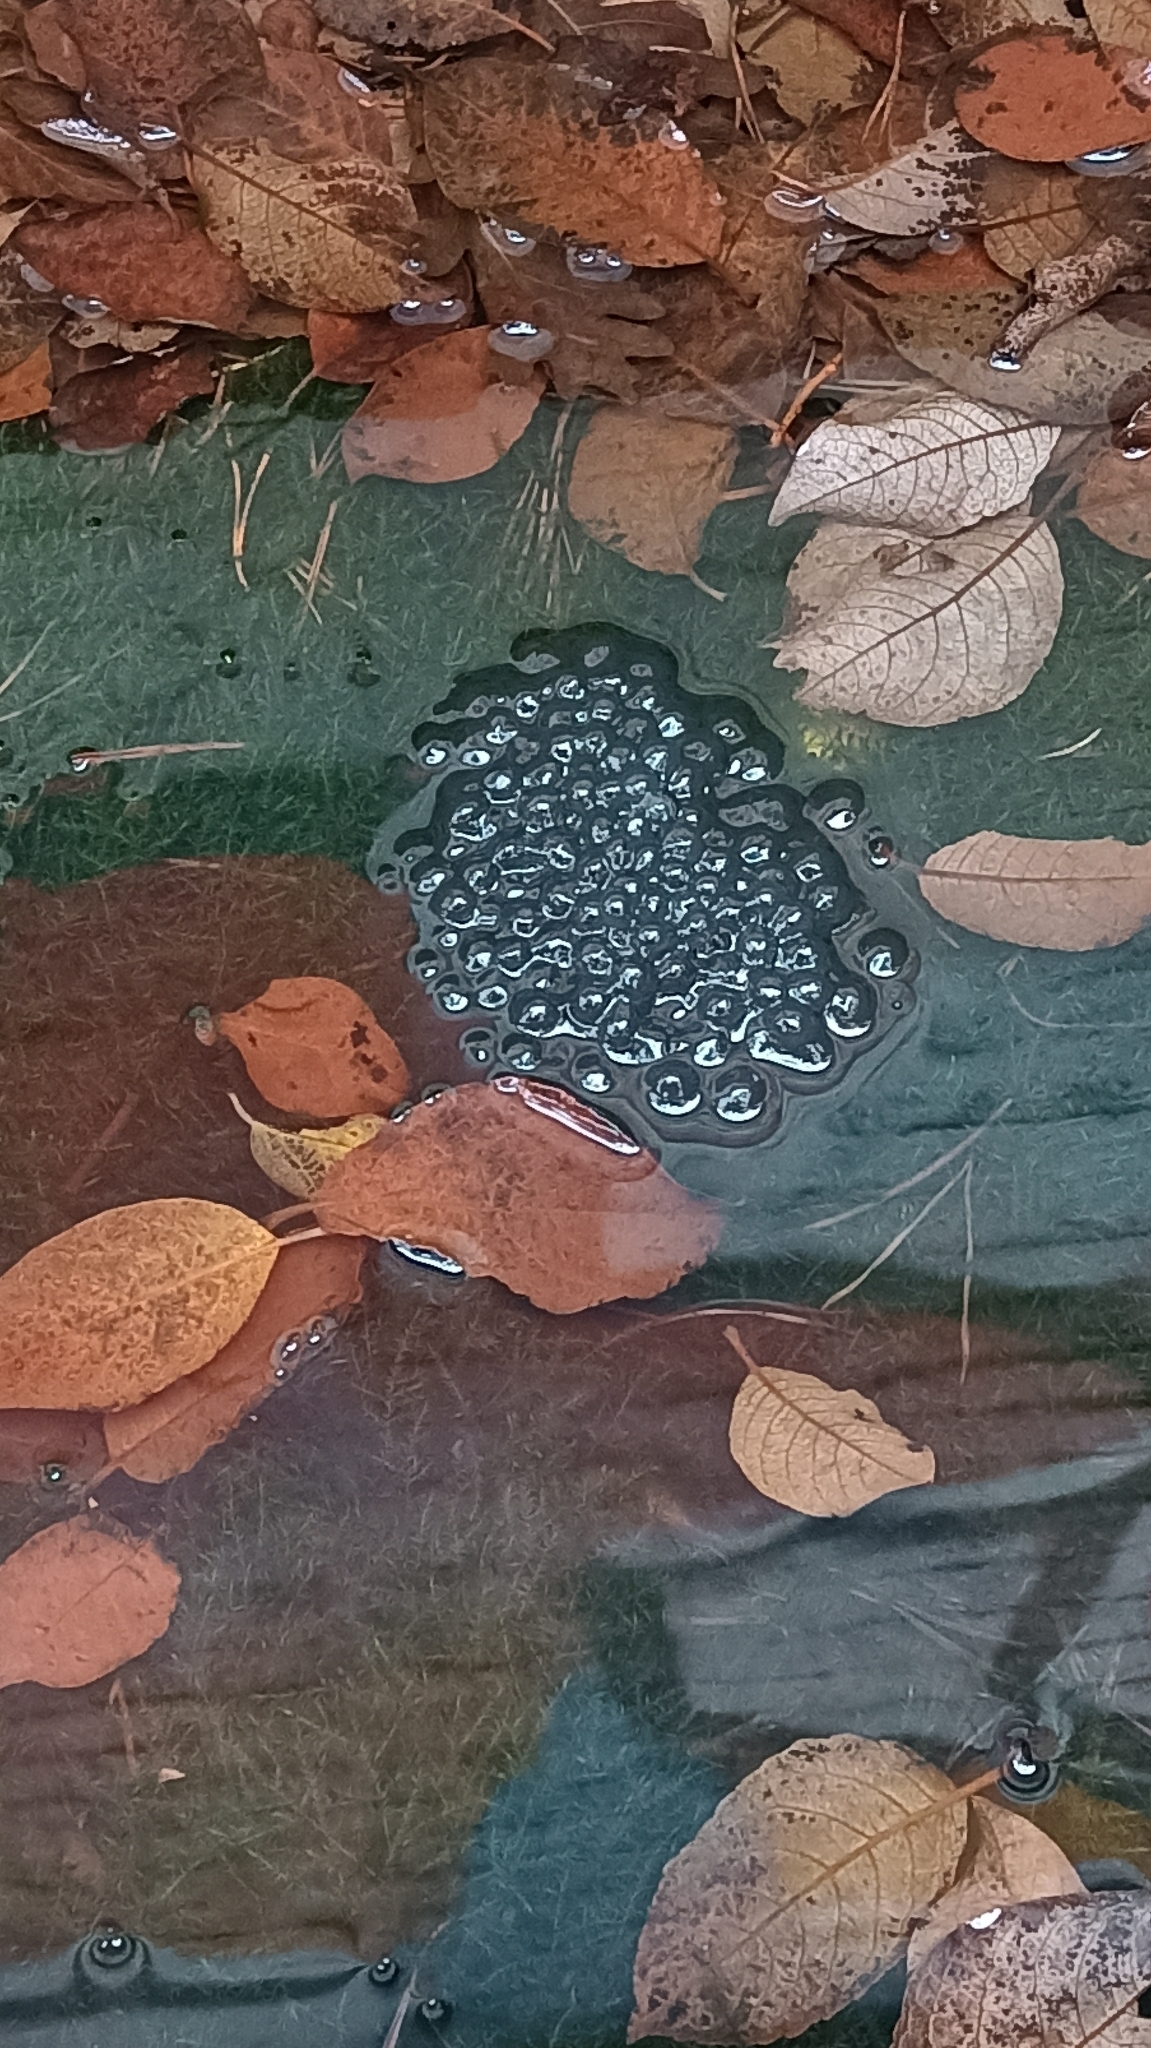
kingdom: Animalia
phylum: Chordata
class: Amphibia
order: Anura
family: Ranidae
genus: Rana
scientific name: Rana temporaria
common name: Common frog
